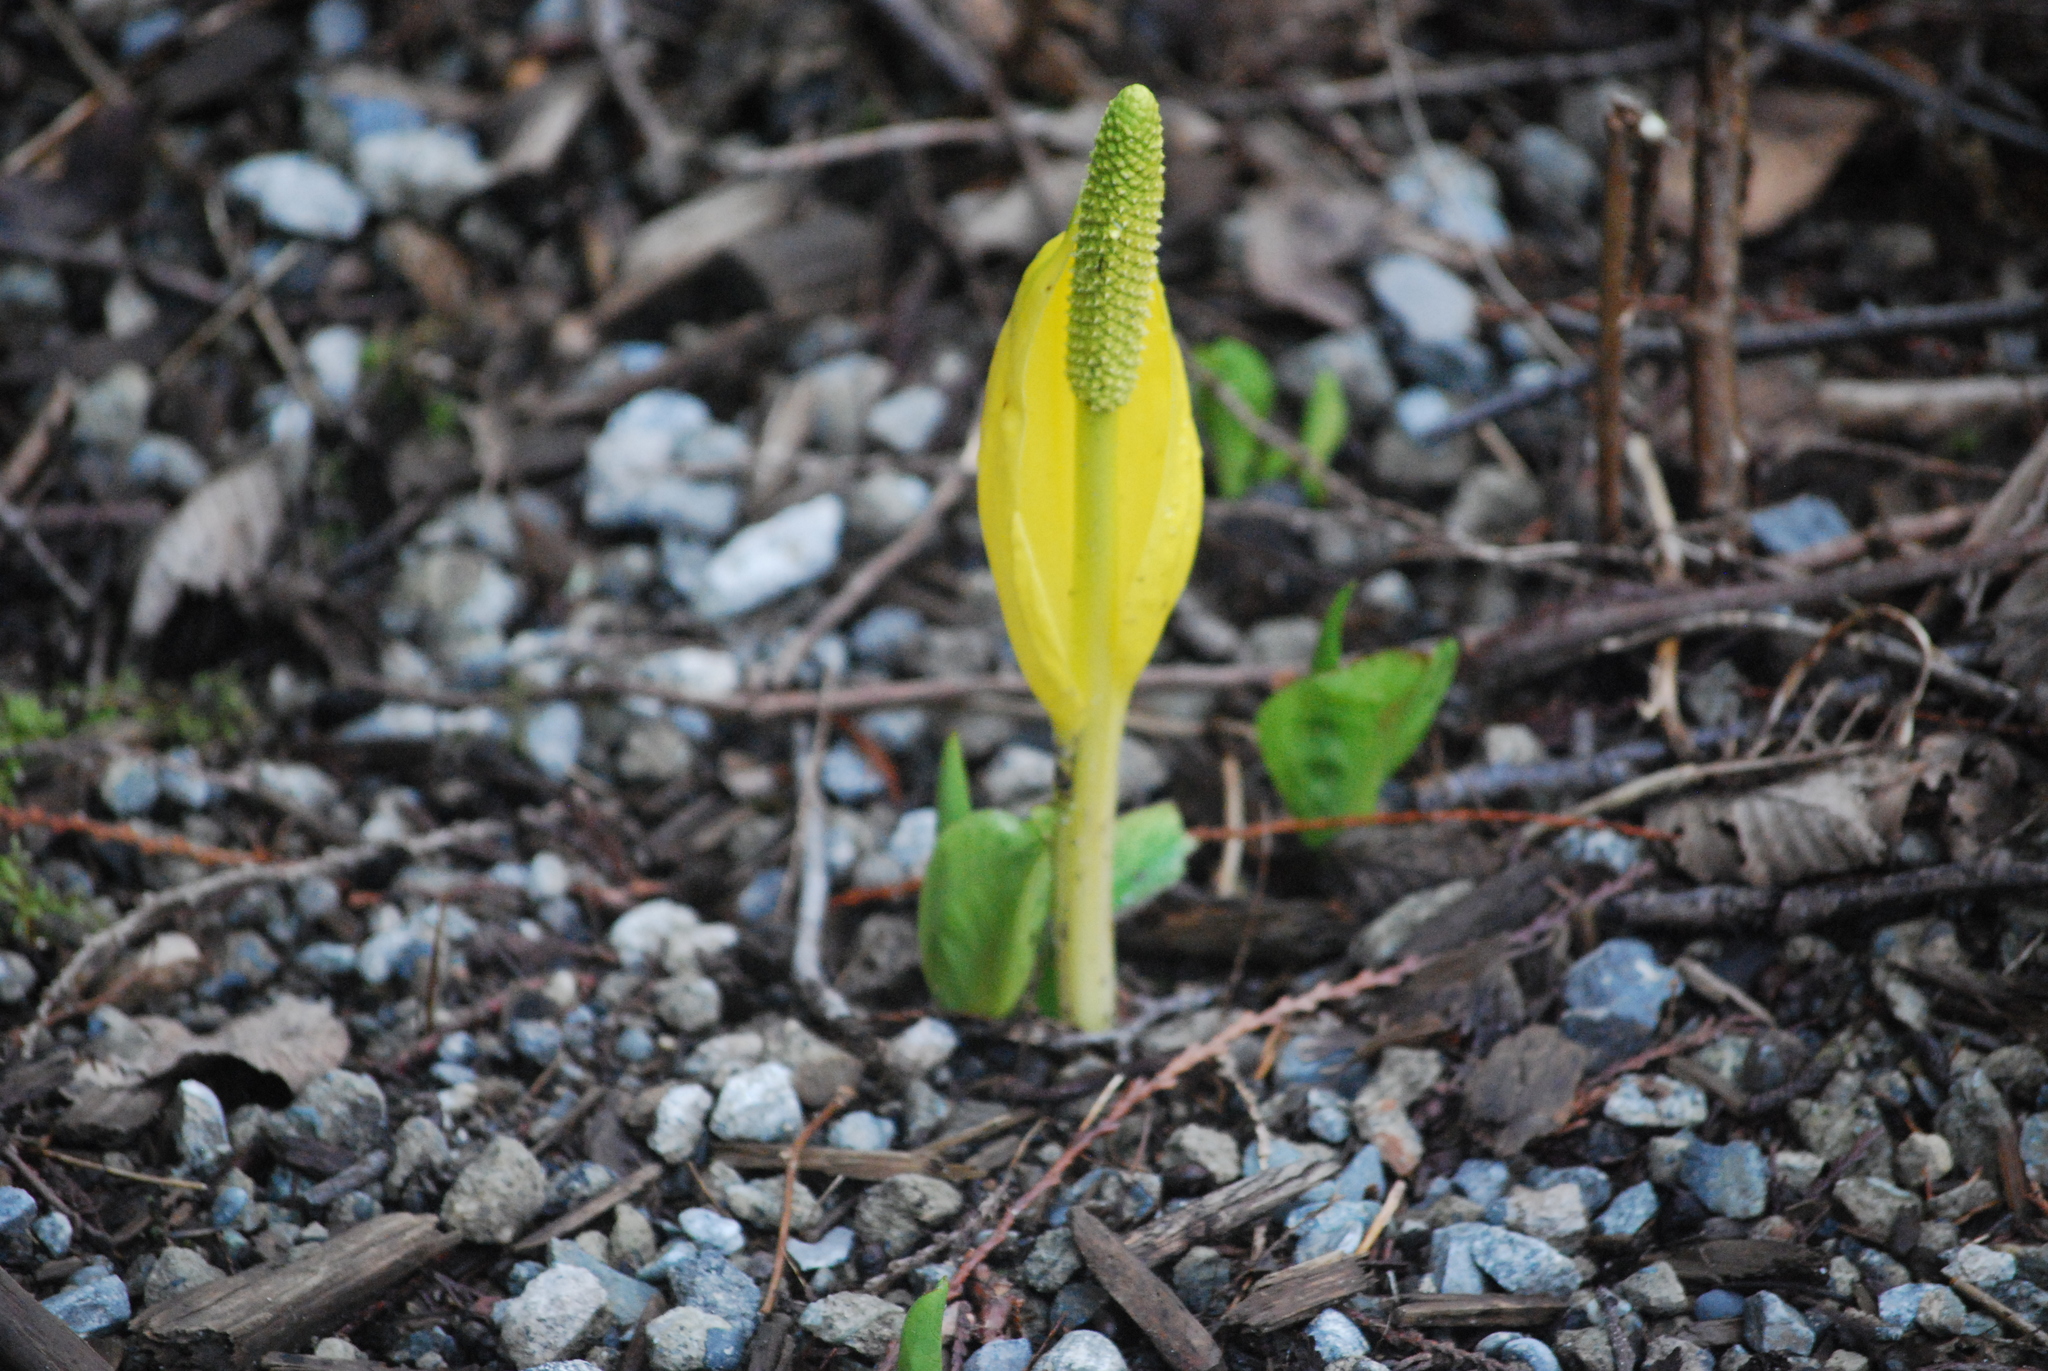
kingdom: Plantae
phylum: Tracheophyta
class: Liliopsida
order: Alismatales
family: Araceae
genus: Lysichiton
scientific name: Lysichiton americanus
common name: American skunk cabbage
